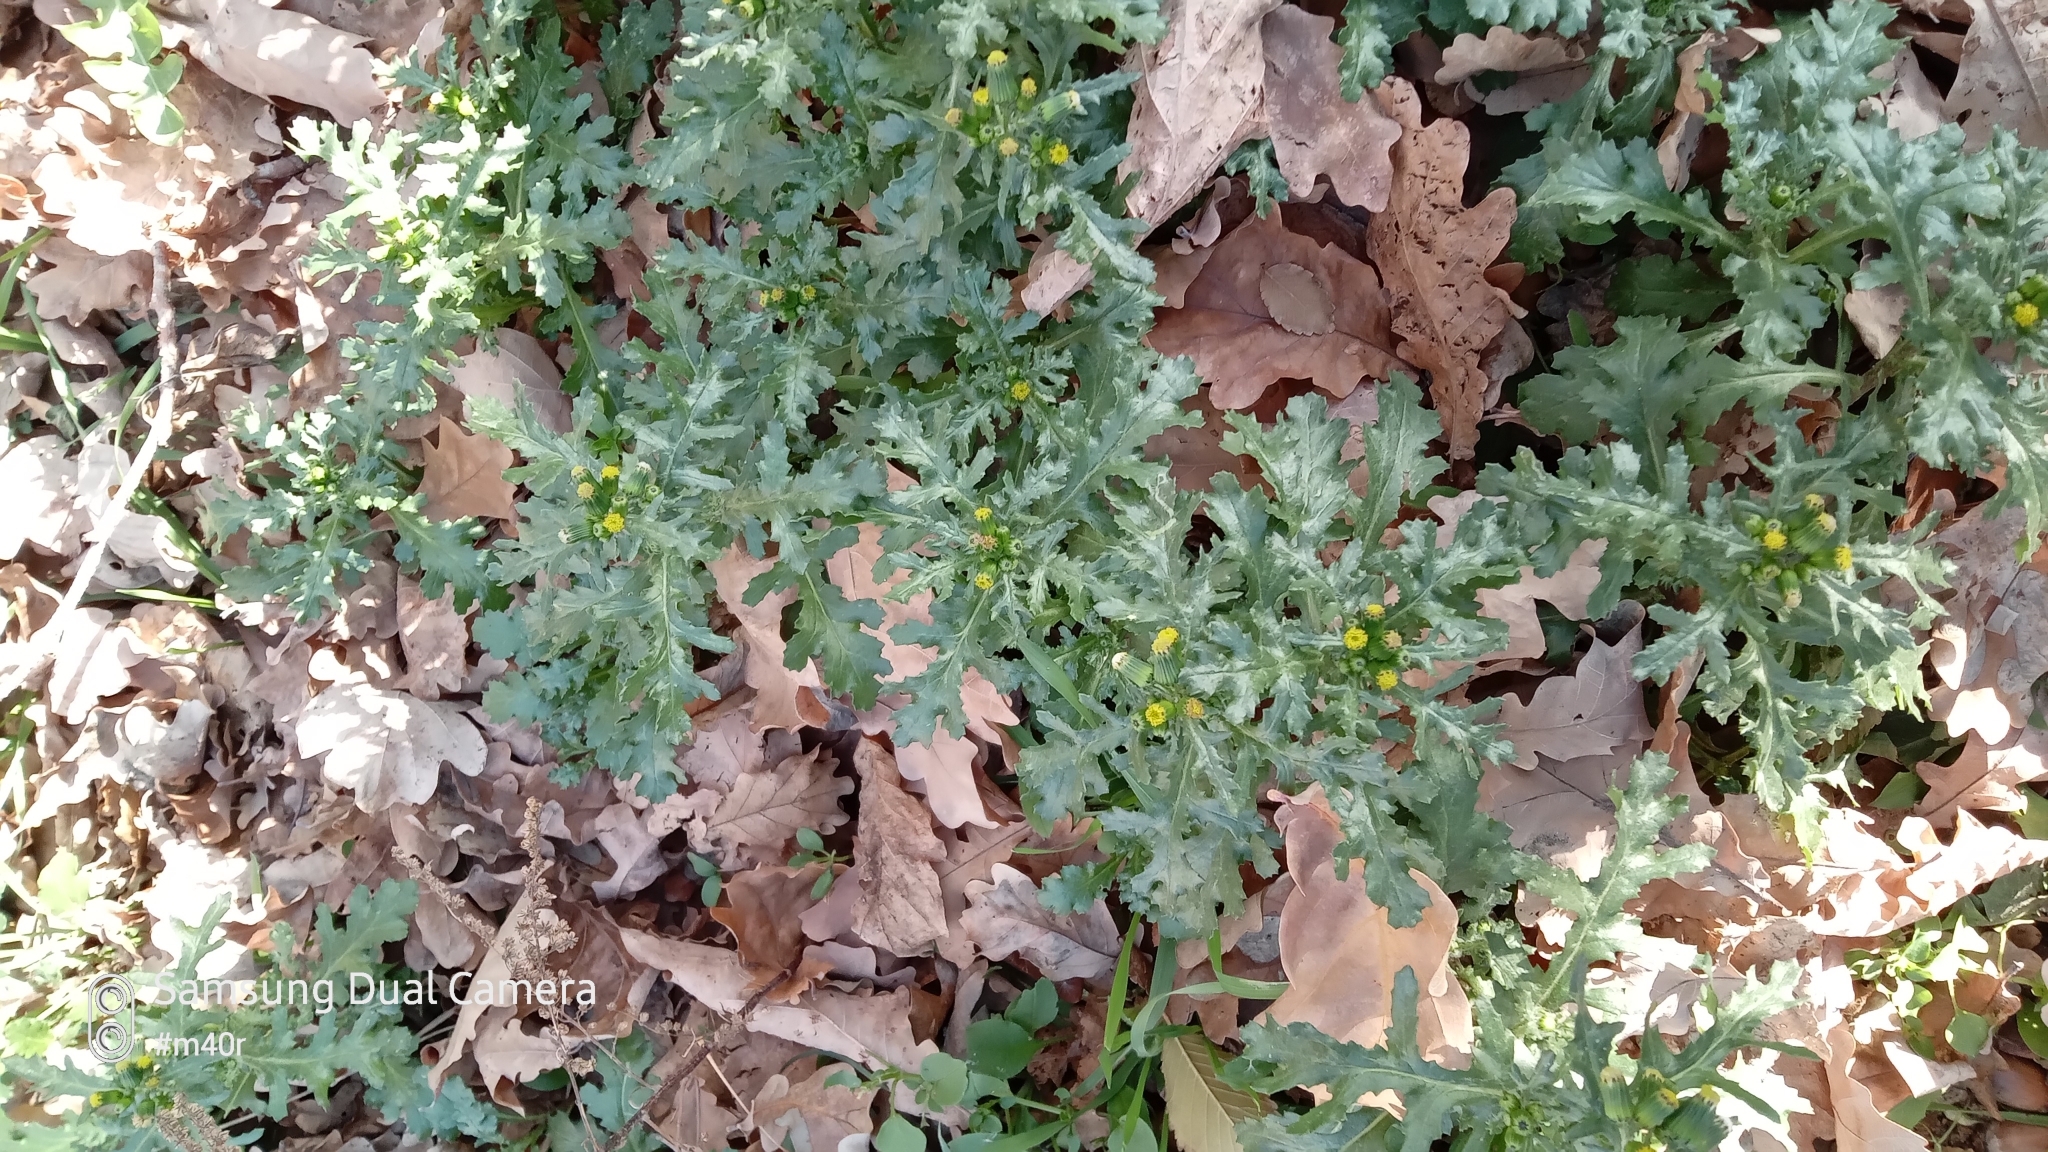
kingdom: Plantae
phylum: Tracheophyta
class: Magnoliopsida
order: Asterales
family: Asteraceae
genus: Senecio
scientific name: Senecio vulgaris
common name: Old-man-in-the-spring
